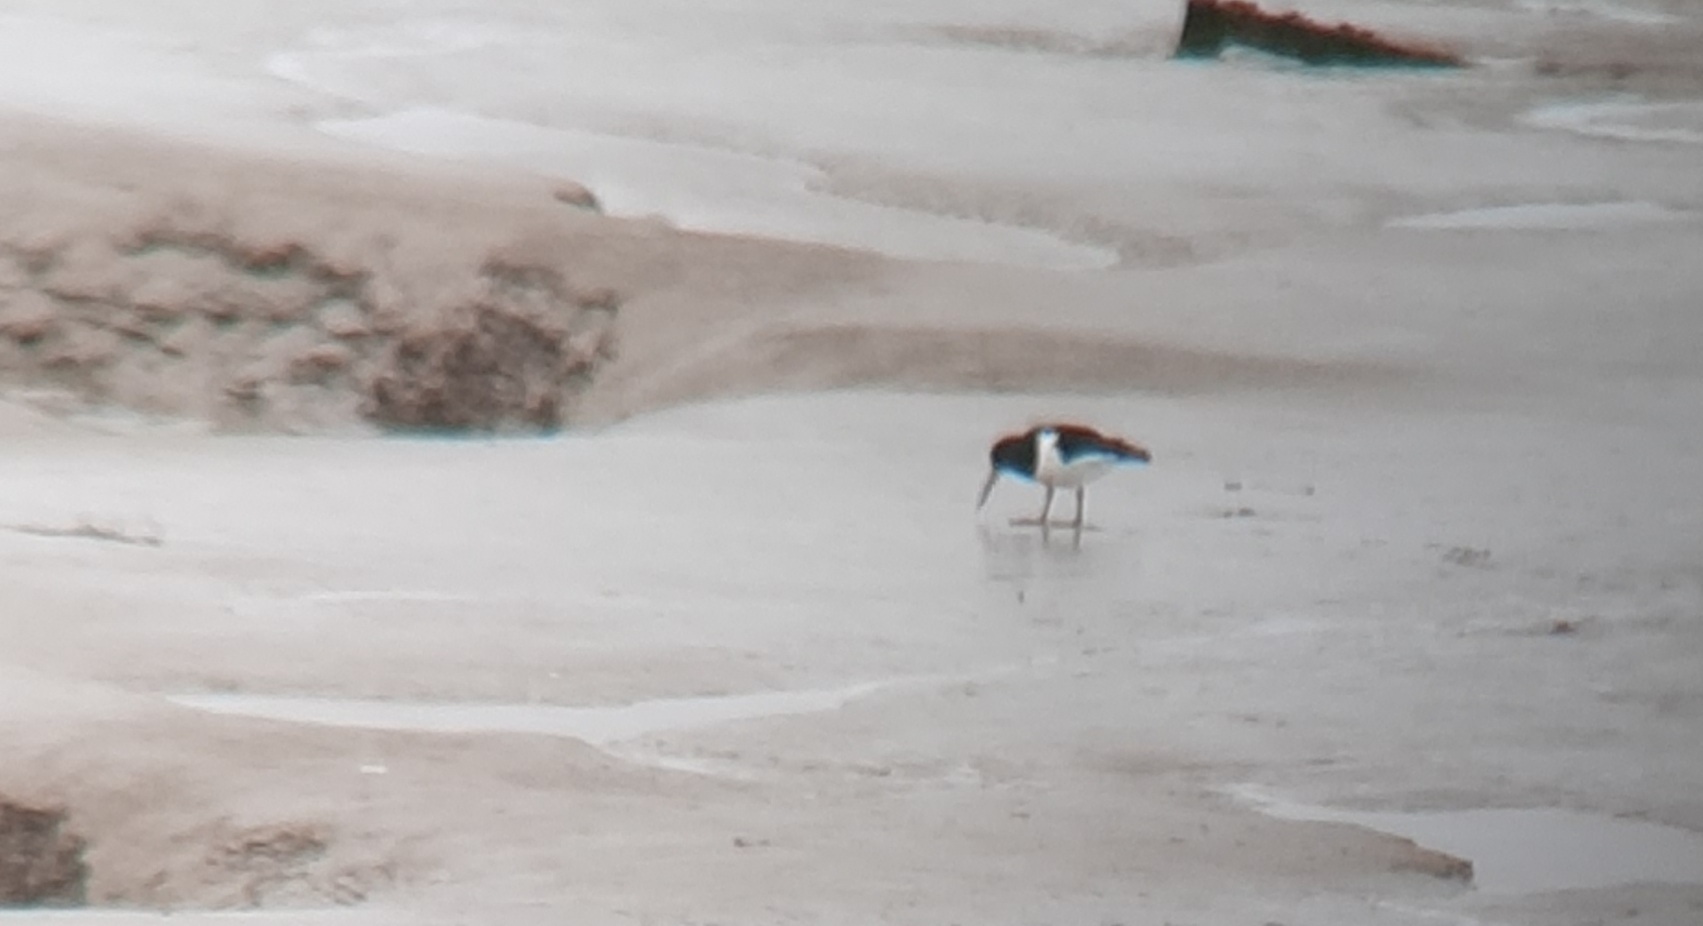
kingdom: Animalia
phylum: Chordata
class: Aves
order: Charadriiformes
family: Haematopodidae
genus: Haematopus
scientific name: Haematopus ostralegus
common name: Eurasian oystercatcher
